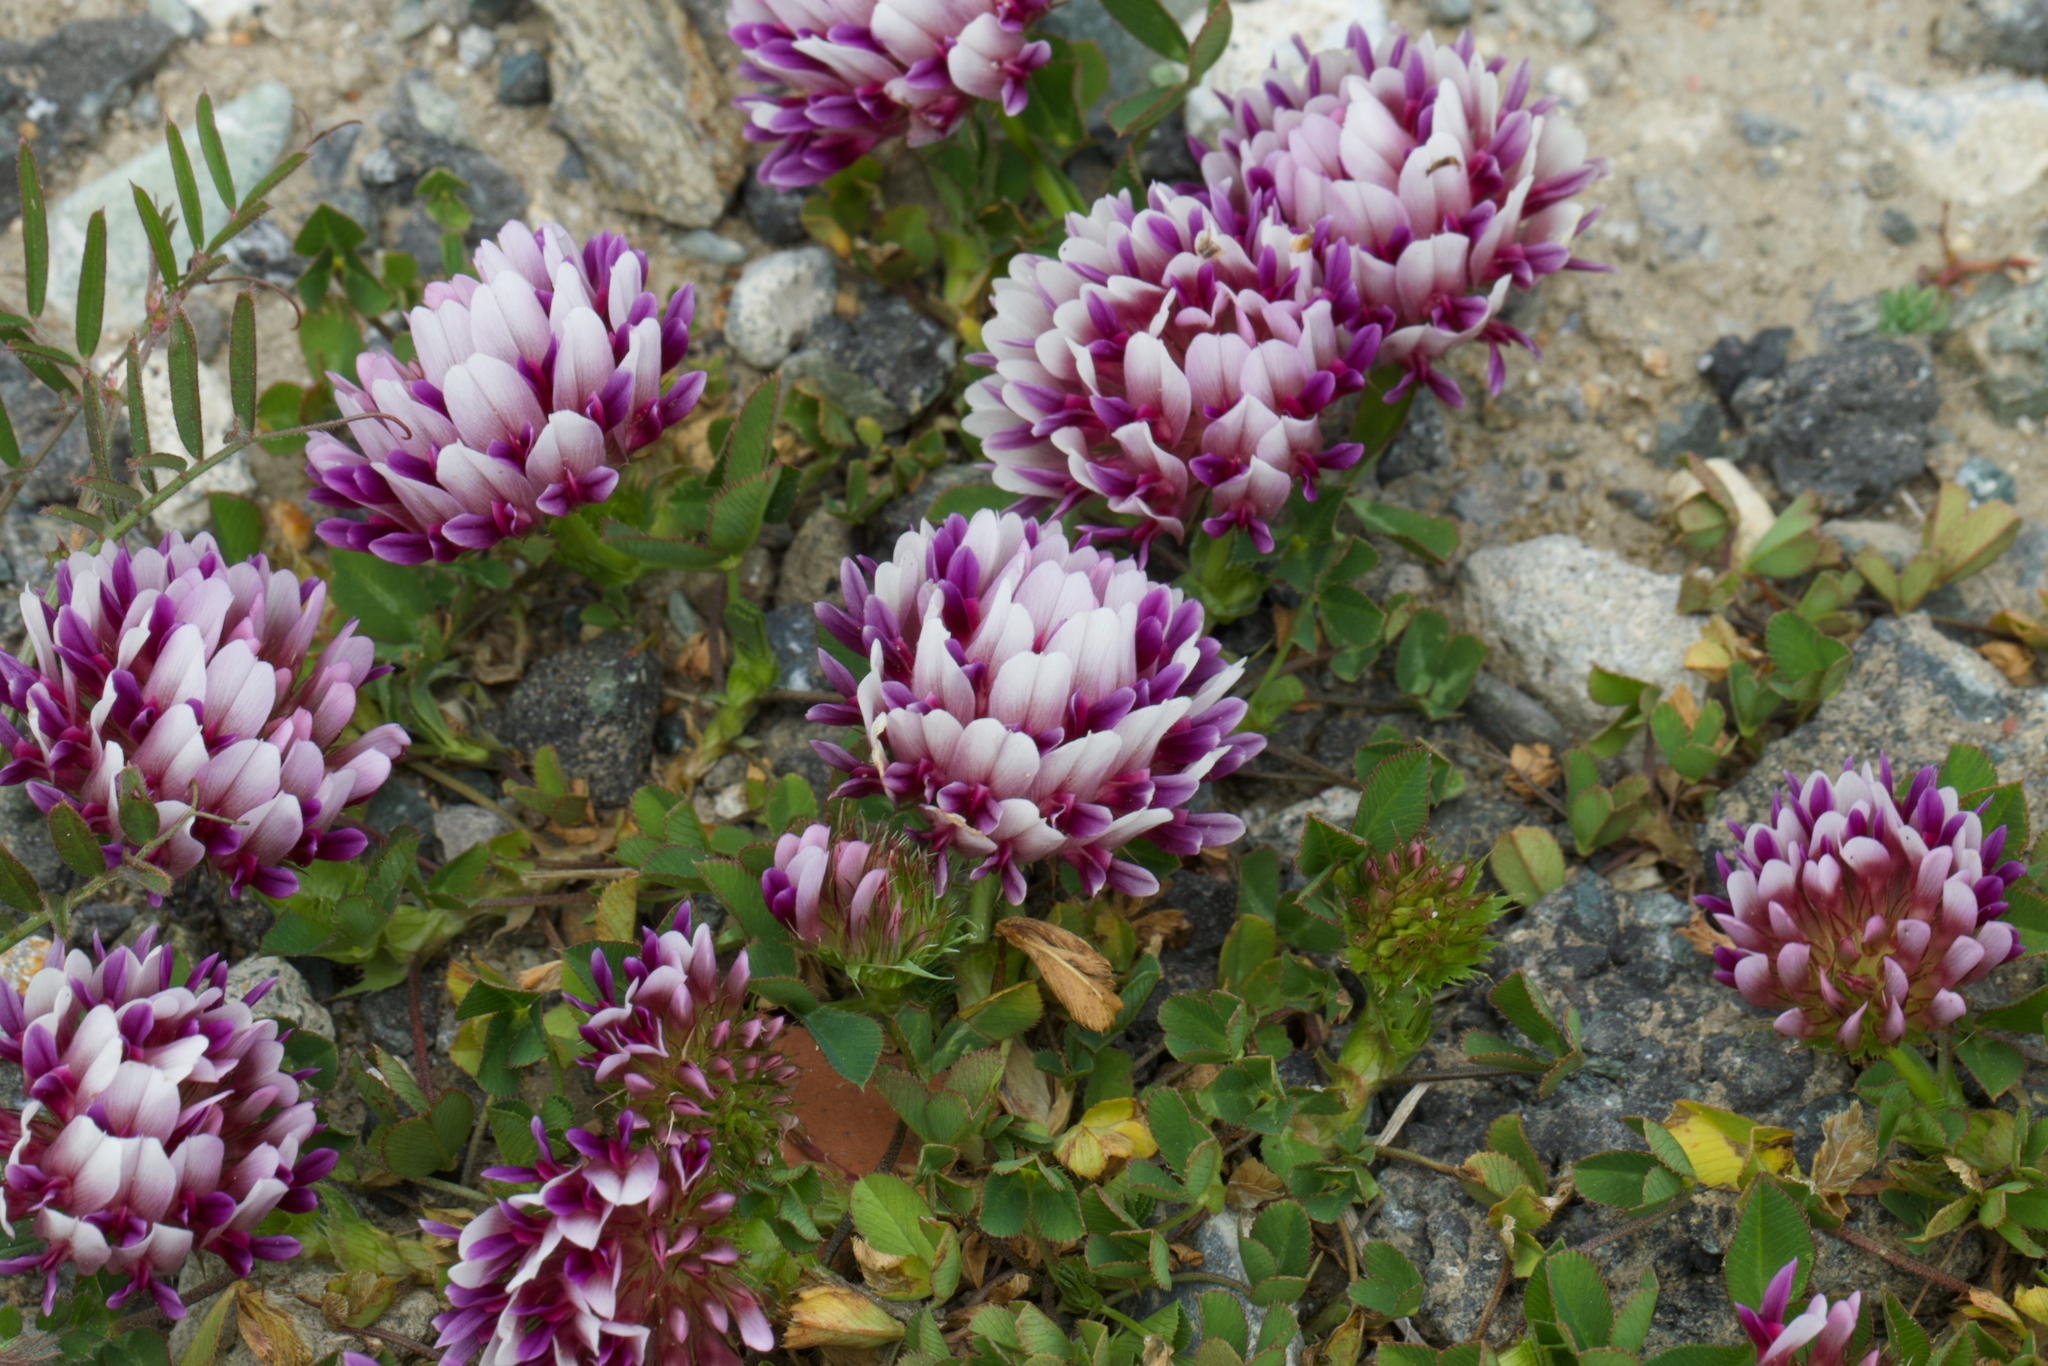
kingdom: Plantae
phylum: Tracheophyta
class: Magnoliopsida
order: Fabales
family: Fabaceae
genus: Trifolium
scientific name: Trifolium wormskioldii
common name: Springbank clover
